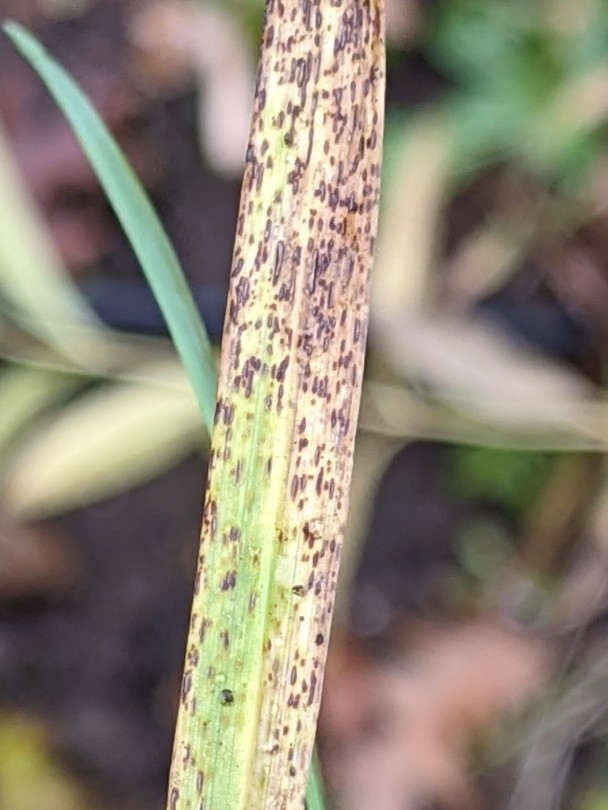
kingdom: Fungi
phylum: Basidiomycota
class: Pucciniomycetes
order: Pucciniales
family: Pucciniaceae
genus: Puccinia
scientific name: Puccinia nakanishikii
